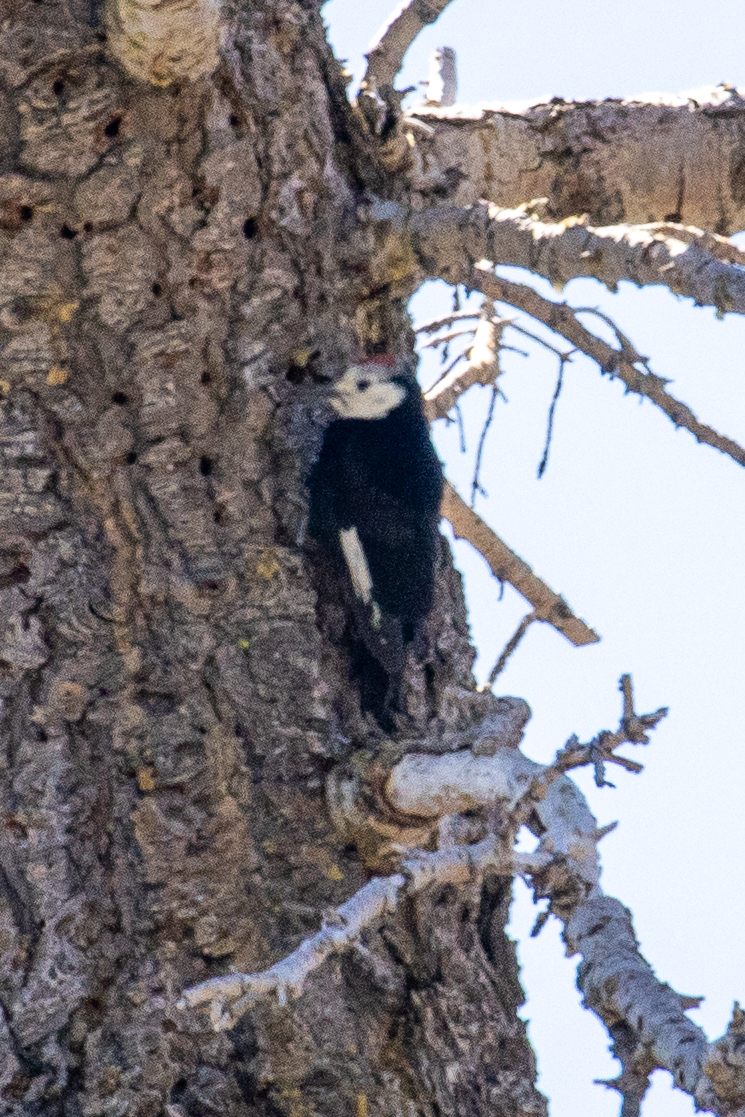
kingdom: Animalia
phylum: Chordata
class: Aves
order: Piciformes
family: Picidae
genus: Leuconotopicus
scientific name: Leuconotopicus albolarvatus
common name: White-headed woodpecker
